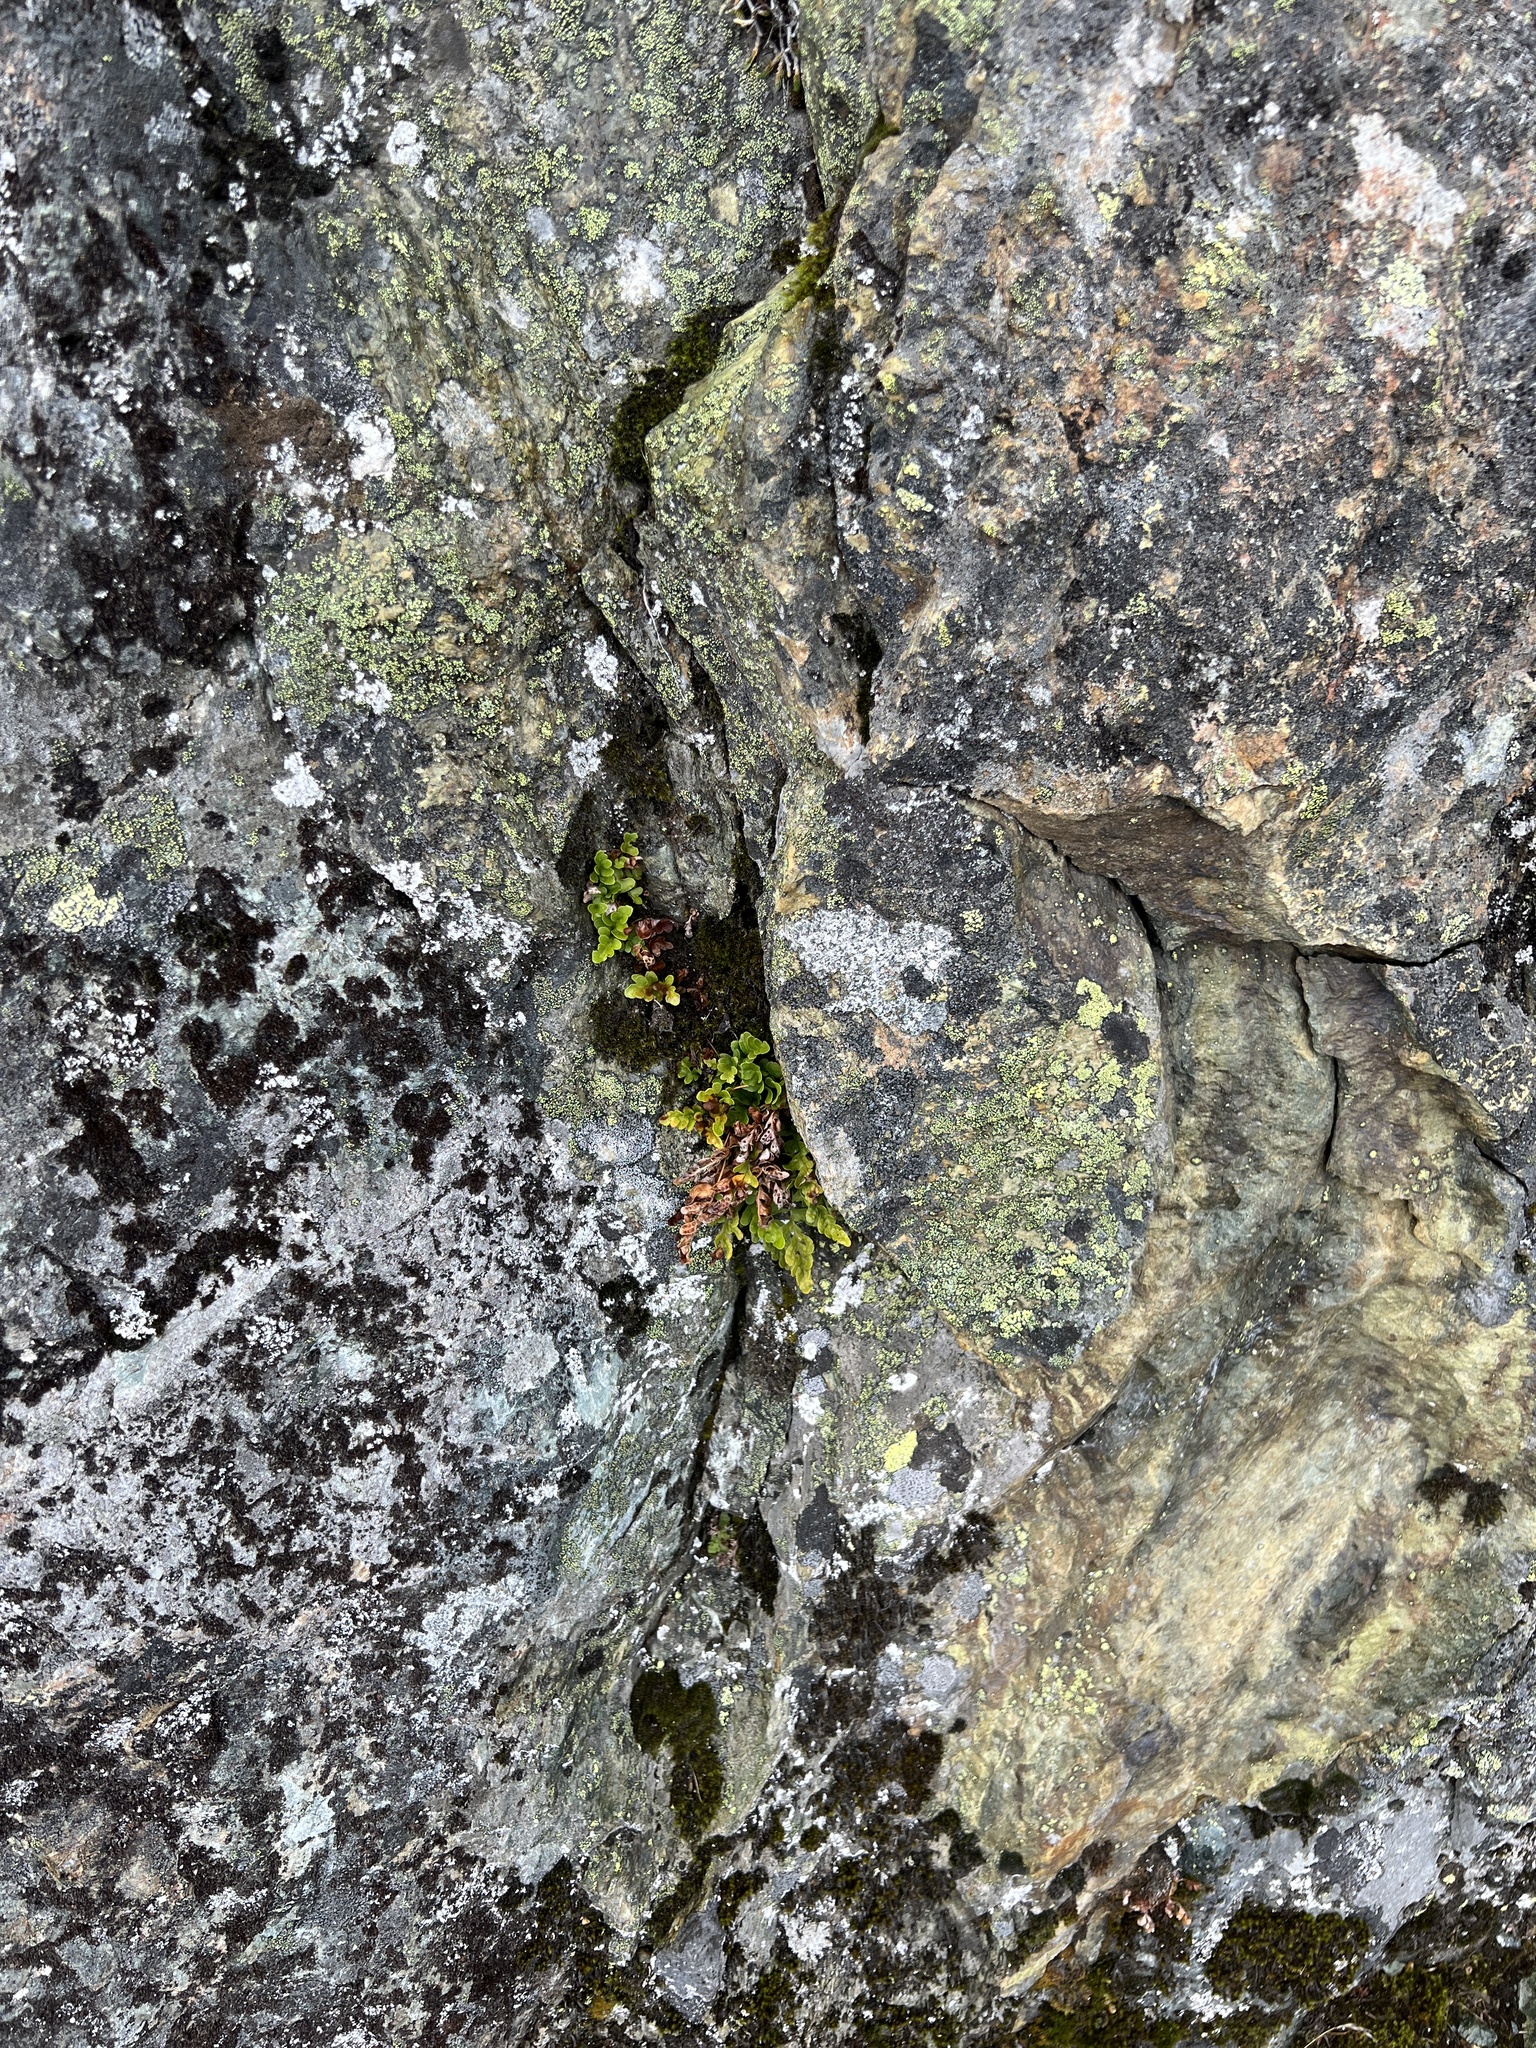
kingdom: Plantae
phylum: Tracheophyta
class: Polypodiopsida
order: Polypodiales
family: Polypodiaceae
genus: Polypodium
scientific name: Polypodium amorphum
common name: Pacific polypody
